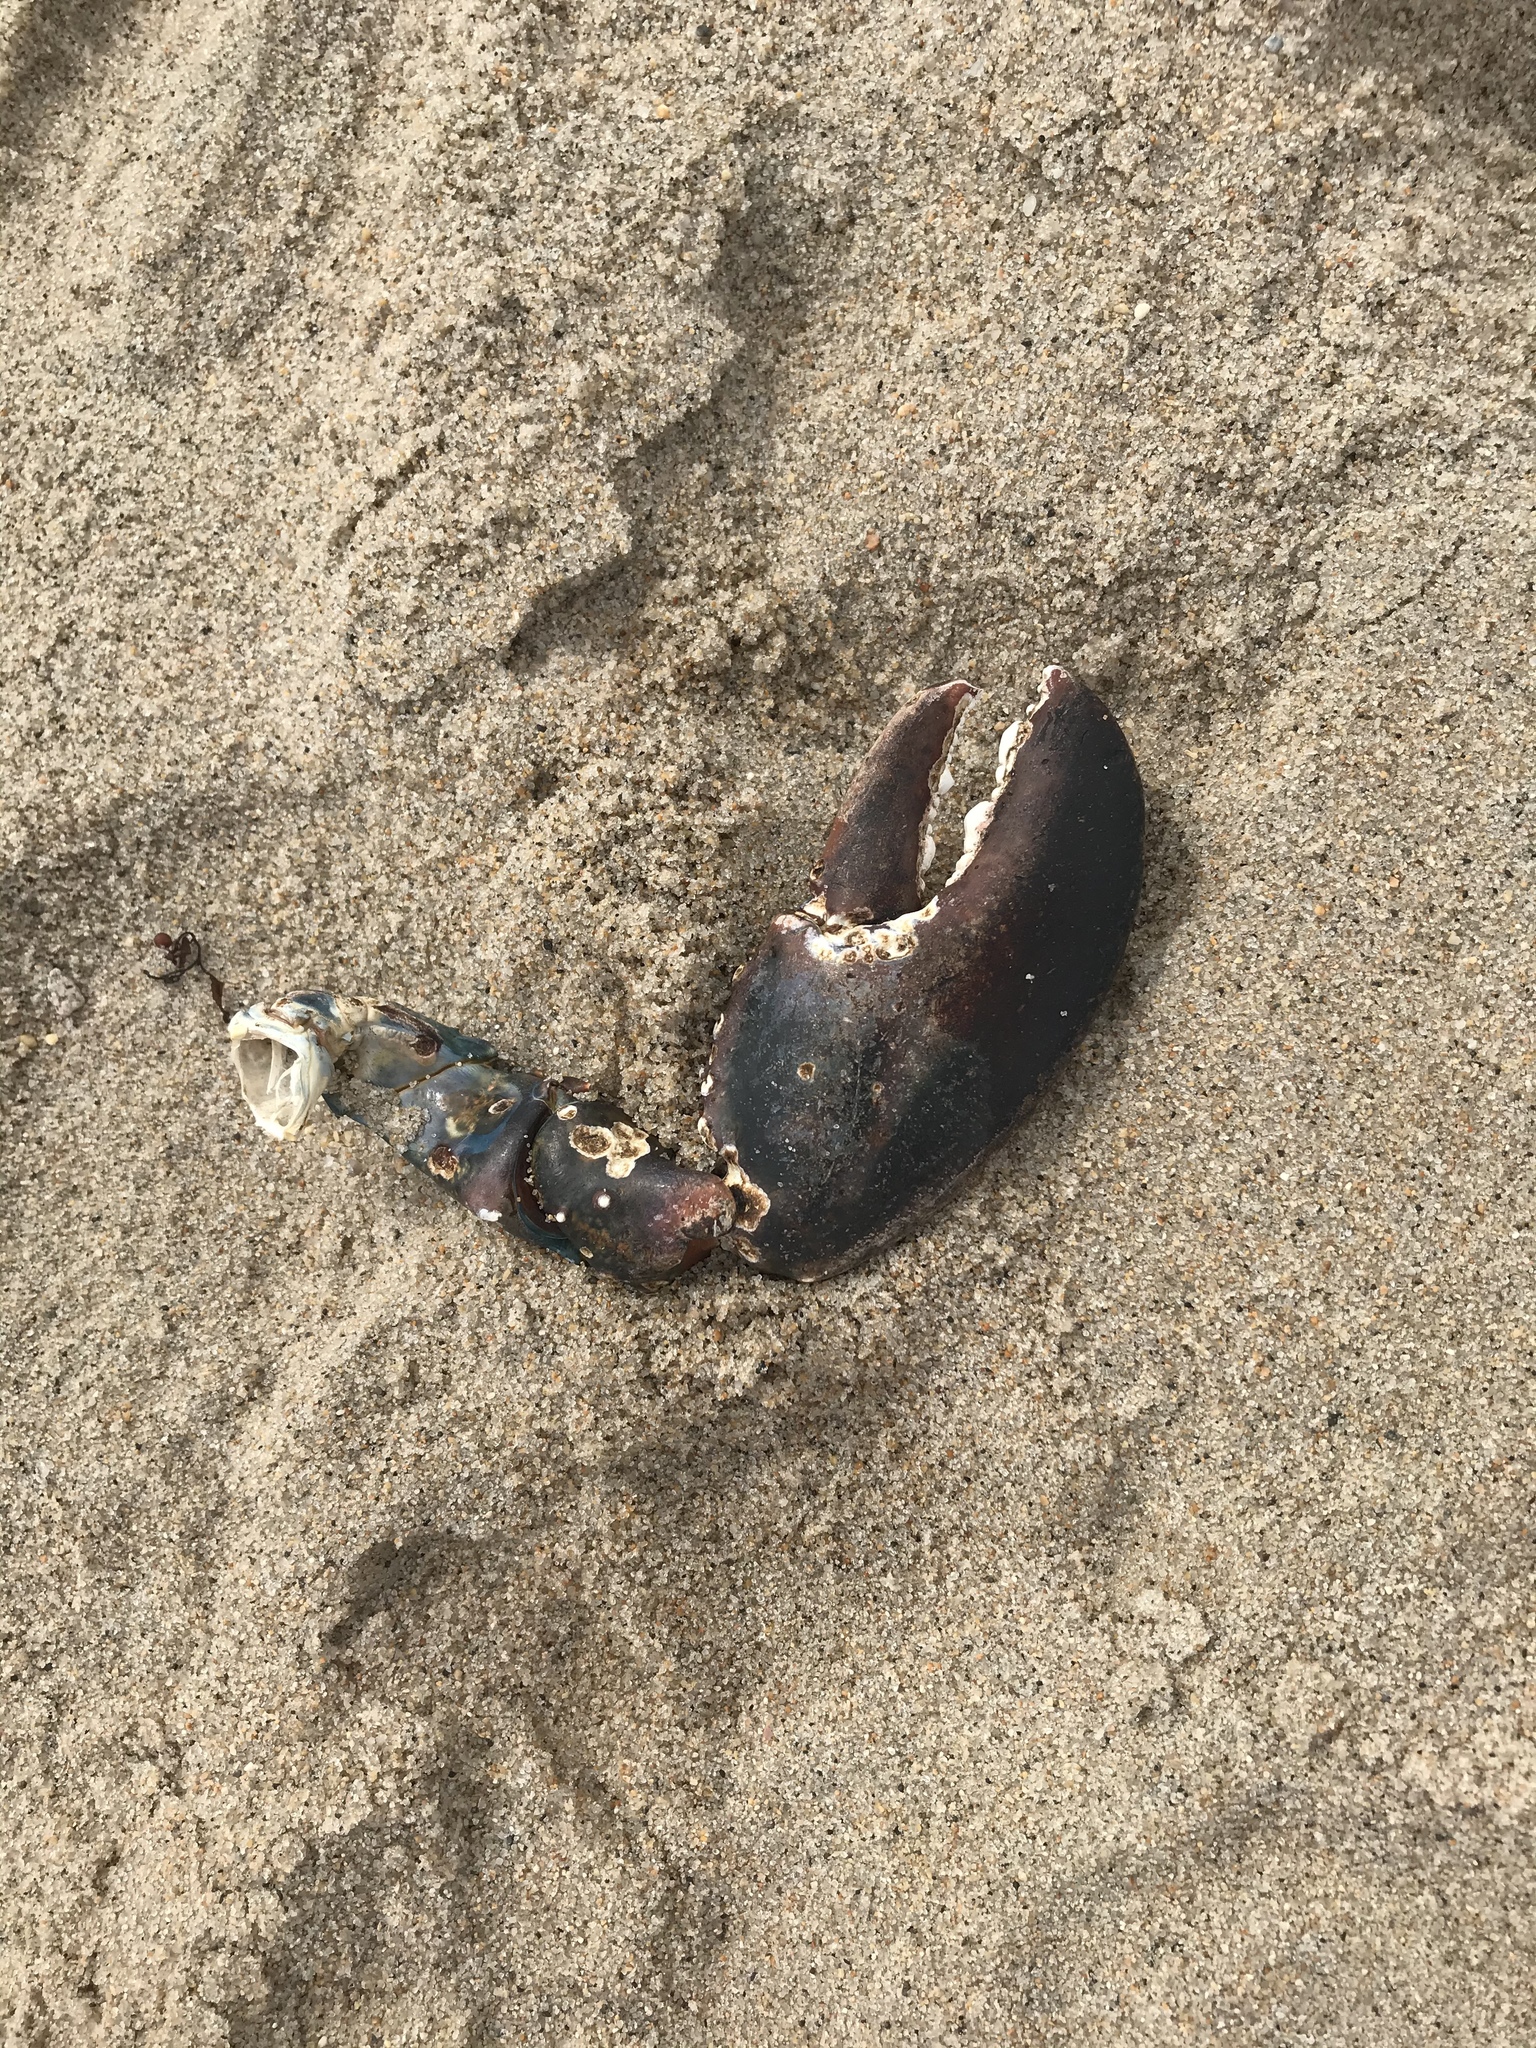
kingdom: Animalia
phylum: Arthropoda
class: Malacostraca
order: Decapoda
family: Nephropidae
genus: Homarus
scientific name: Homarus americanus
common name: American lobster
